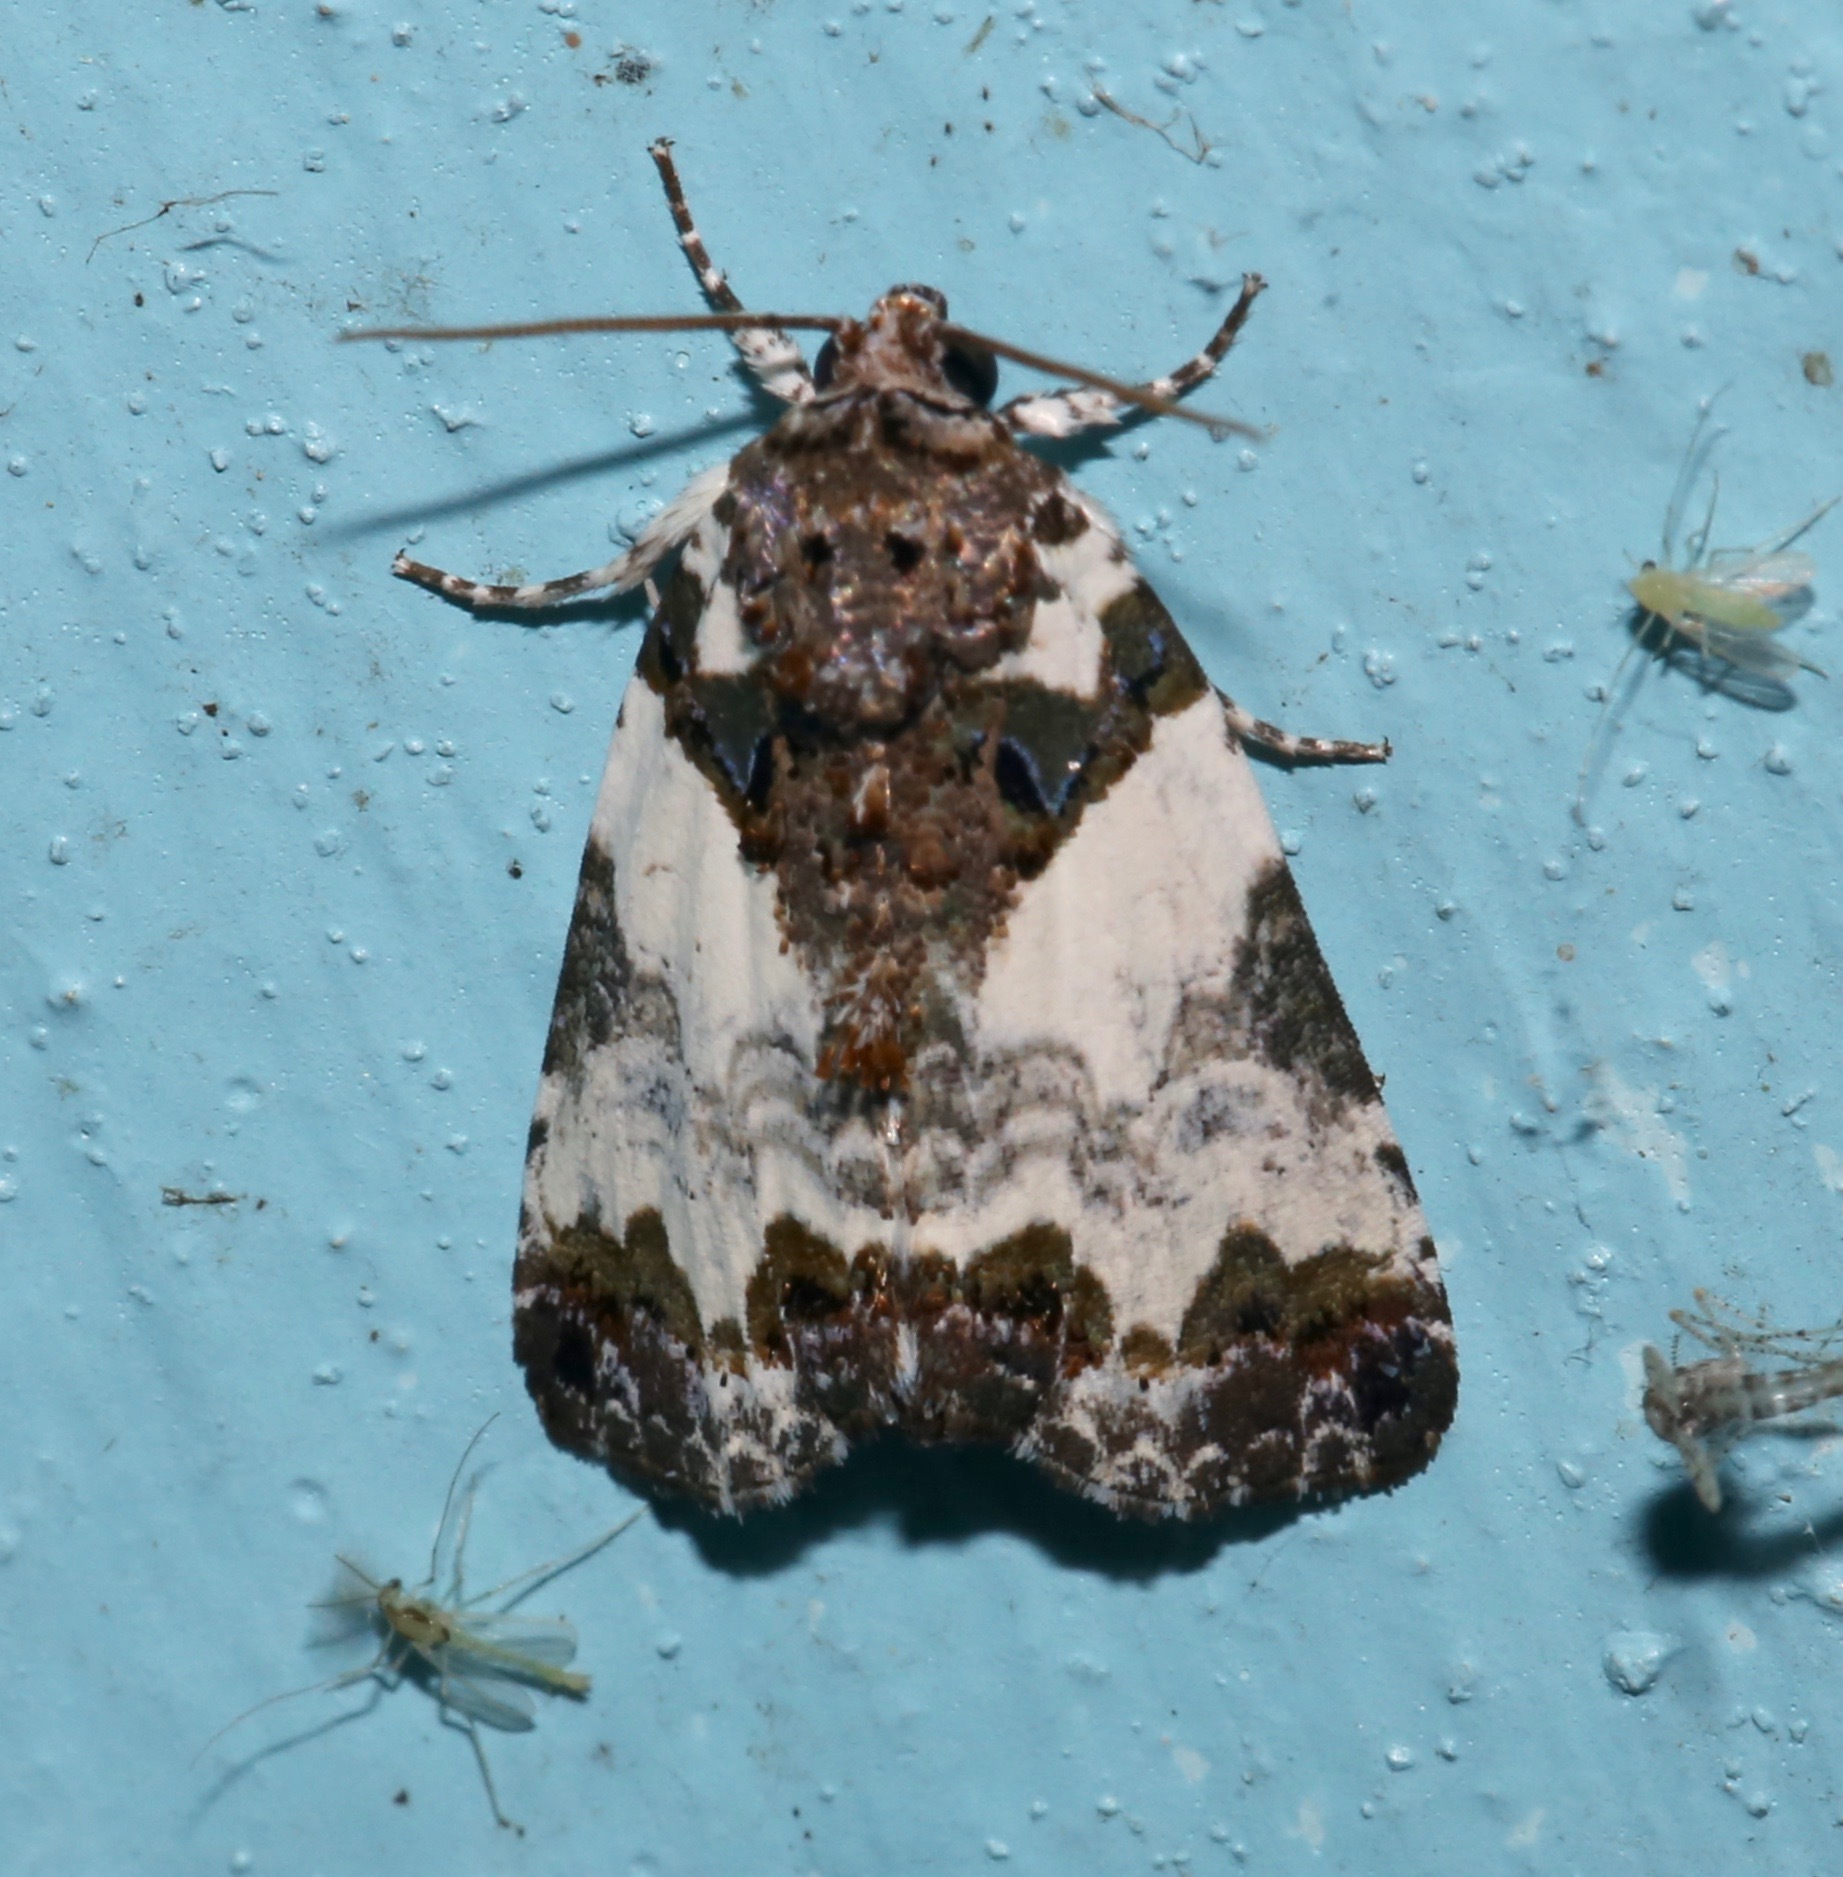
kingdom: Animalia
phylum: Arthropoda
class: Insecta
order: Lepidoptera
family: Noctuidae
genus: Cerma
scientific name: Cerma cerintha
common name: Tufted bird-dropping moth
